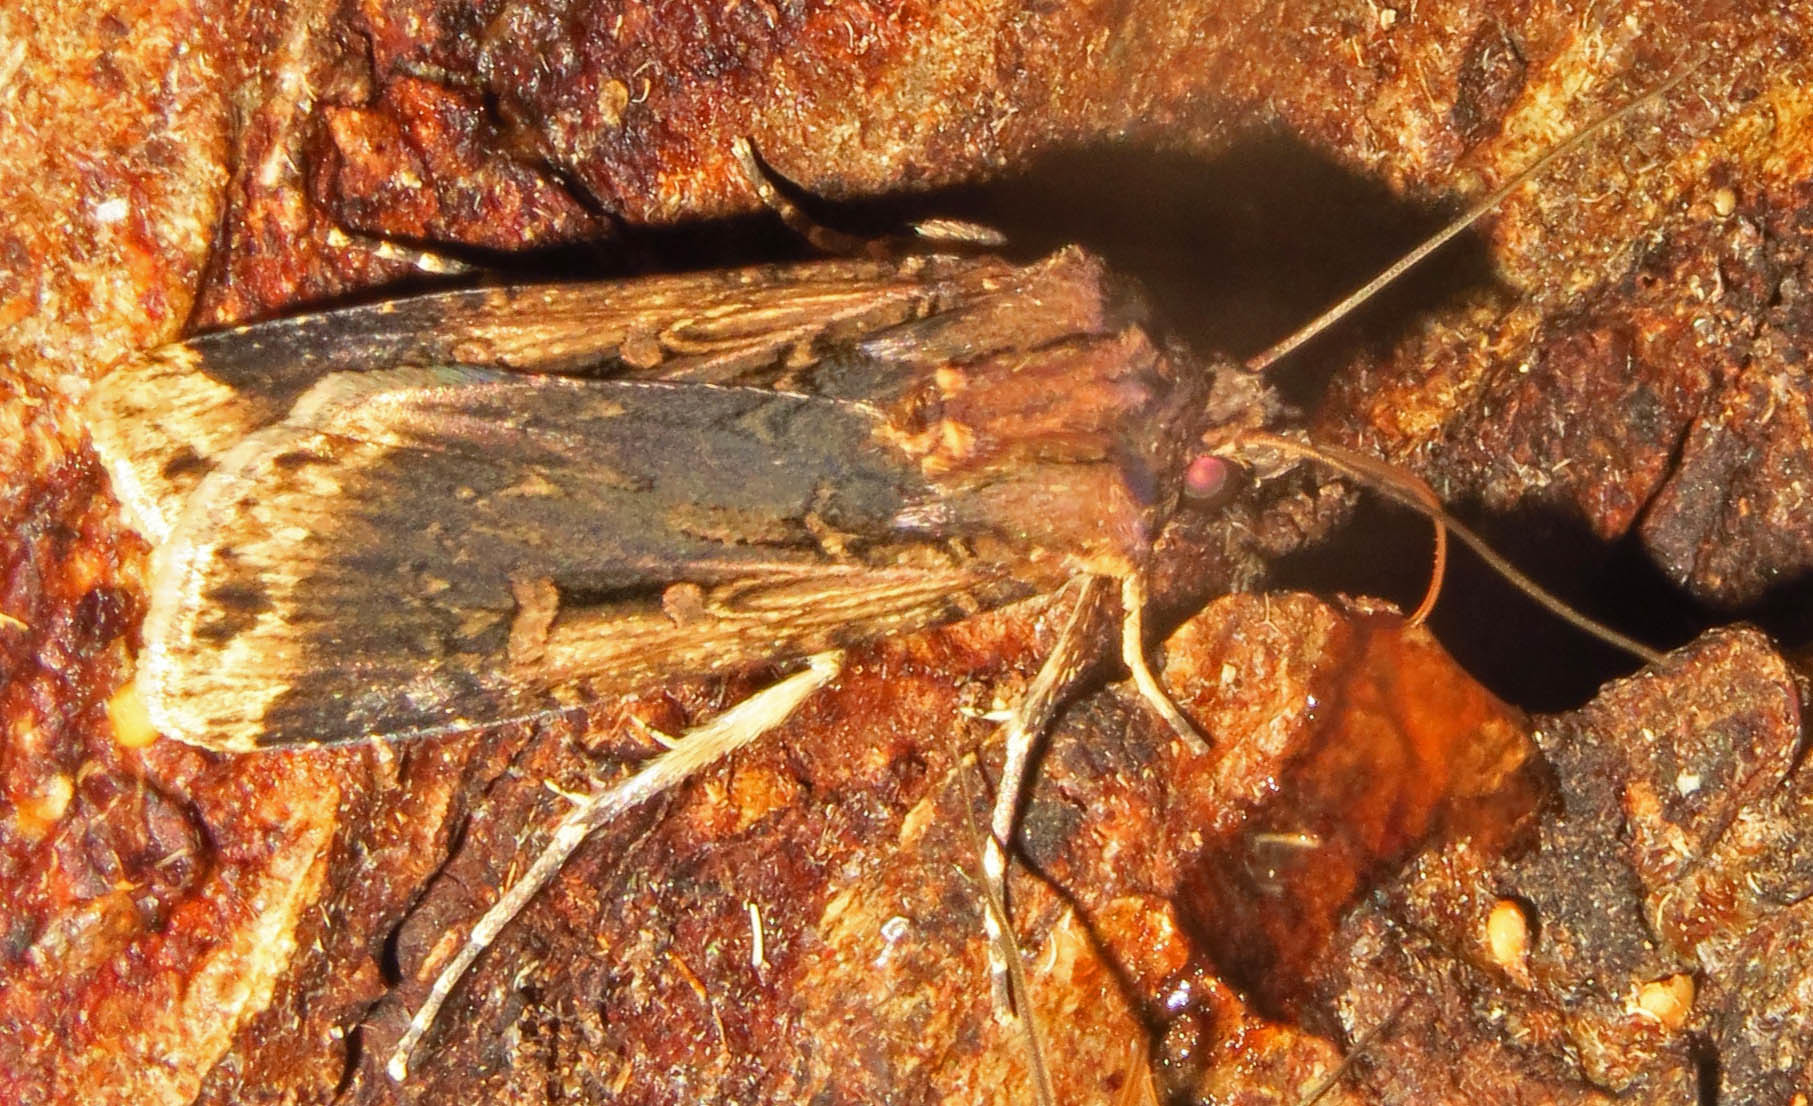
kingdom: Animalia
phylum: Arthropoda
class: Insecta
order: Lepidoptera
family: Noctuidae
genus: Feltia
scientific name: Feltia subterranea
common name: Granulate cutworm
